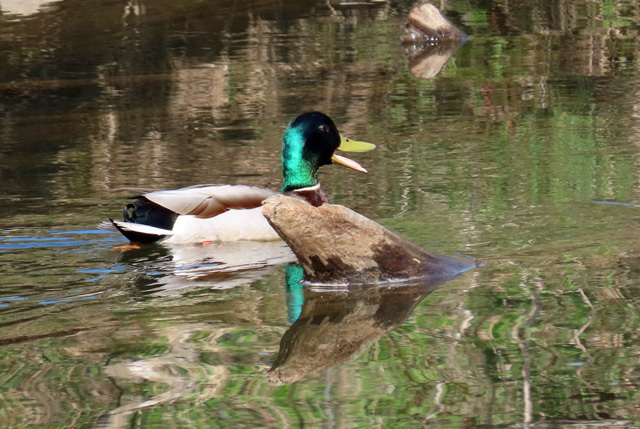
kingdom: Animalia
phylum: Chordata
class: Aves
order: Anseriformes
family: Anatidae
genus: Anas
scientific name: Anas platyrhynchos
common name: Mallard
